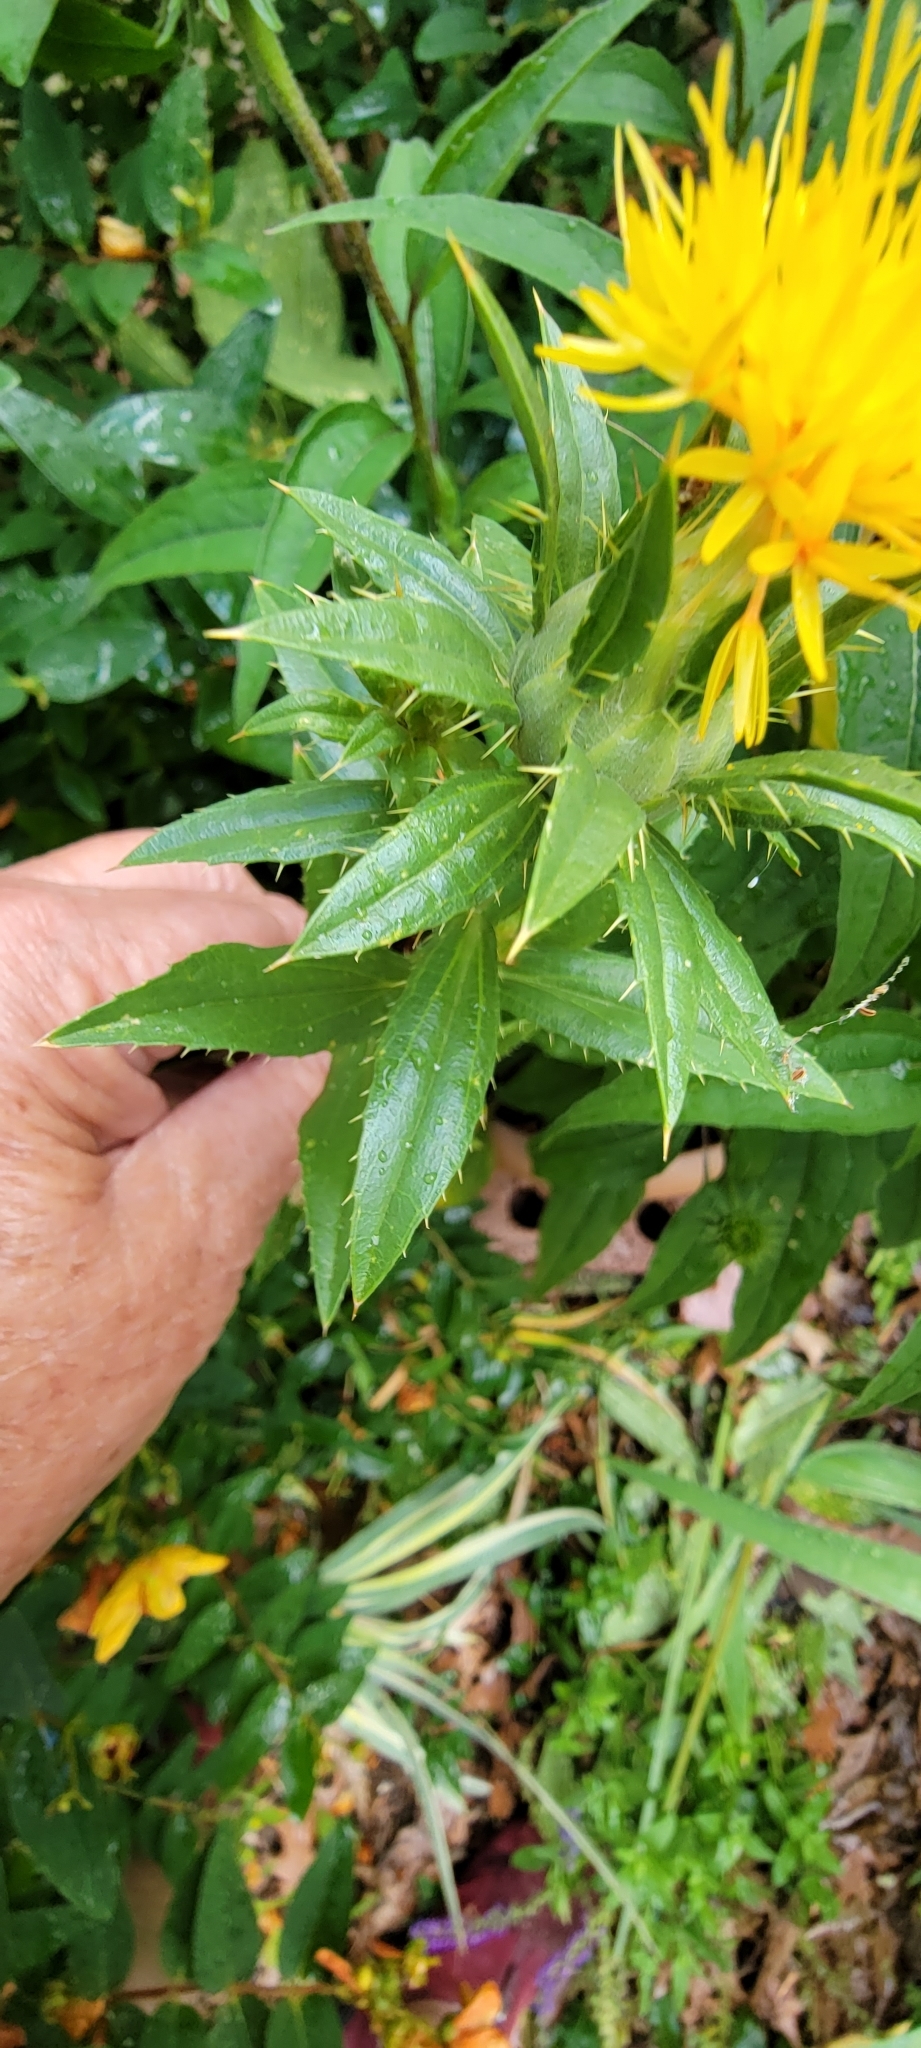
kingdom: Plantae
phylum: Tracheophyta
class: Magnoliopsida
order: Asterales
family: Asteraceae
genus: Carthamus
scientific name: Carthamus tinctorius
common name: Safflower
